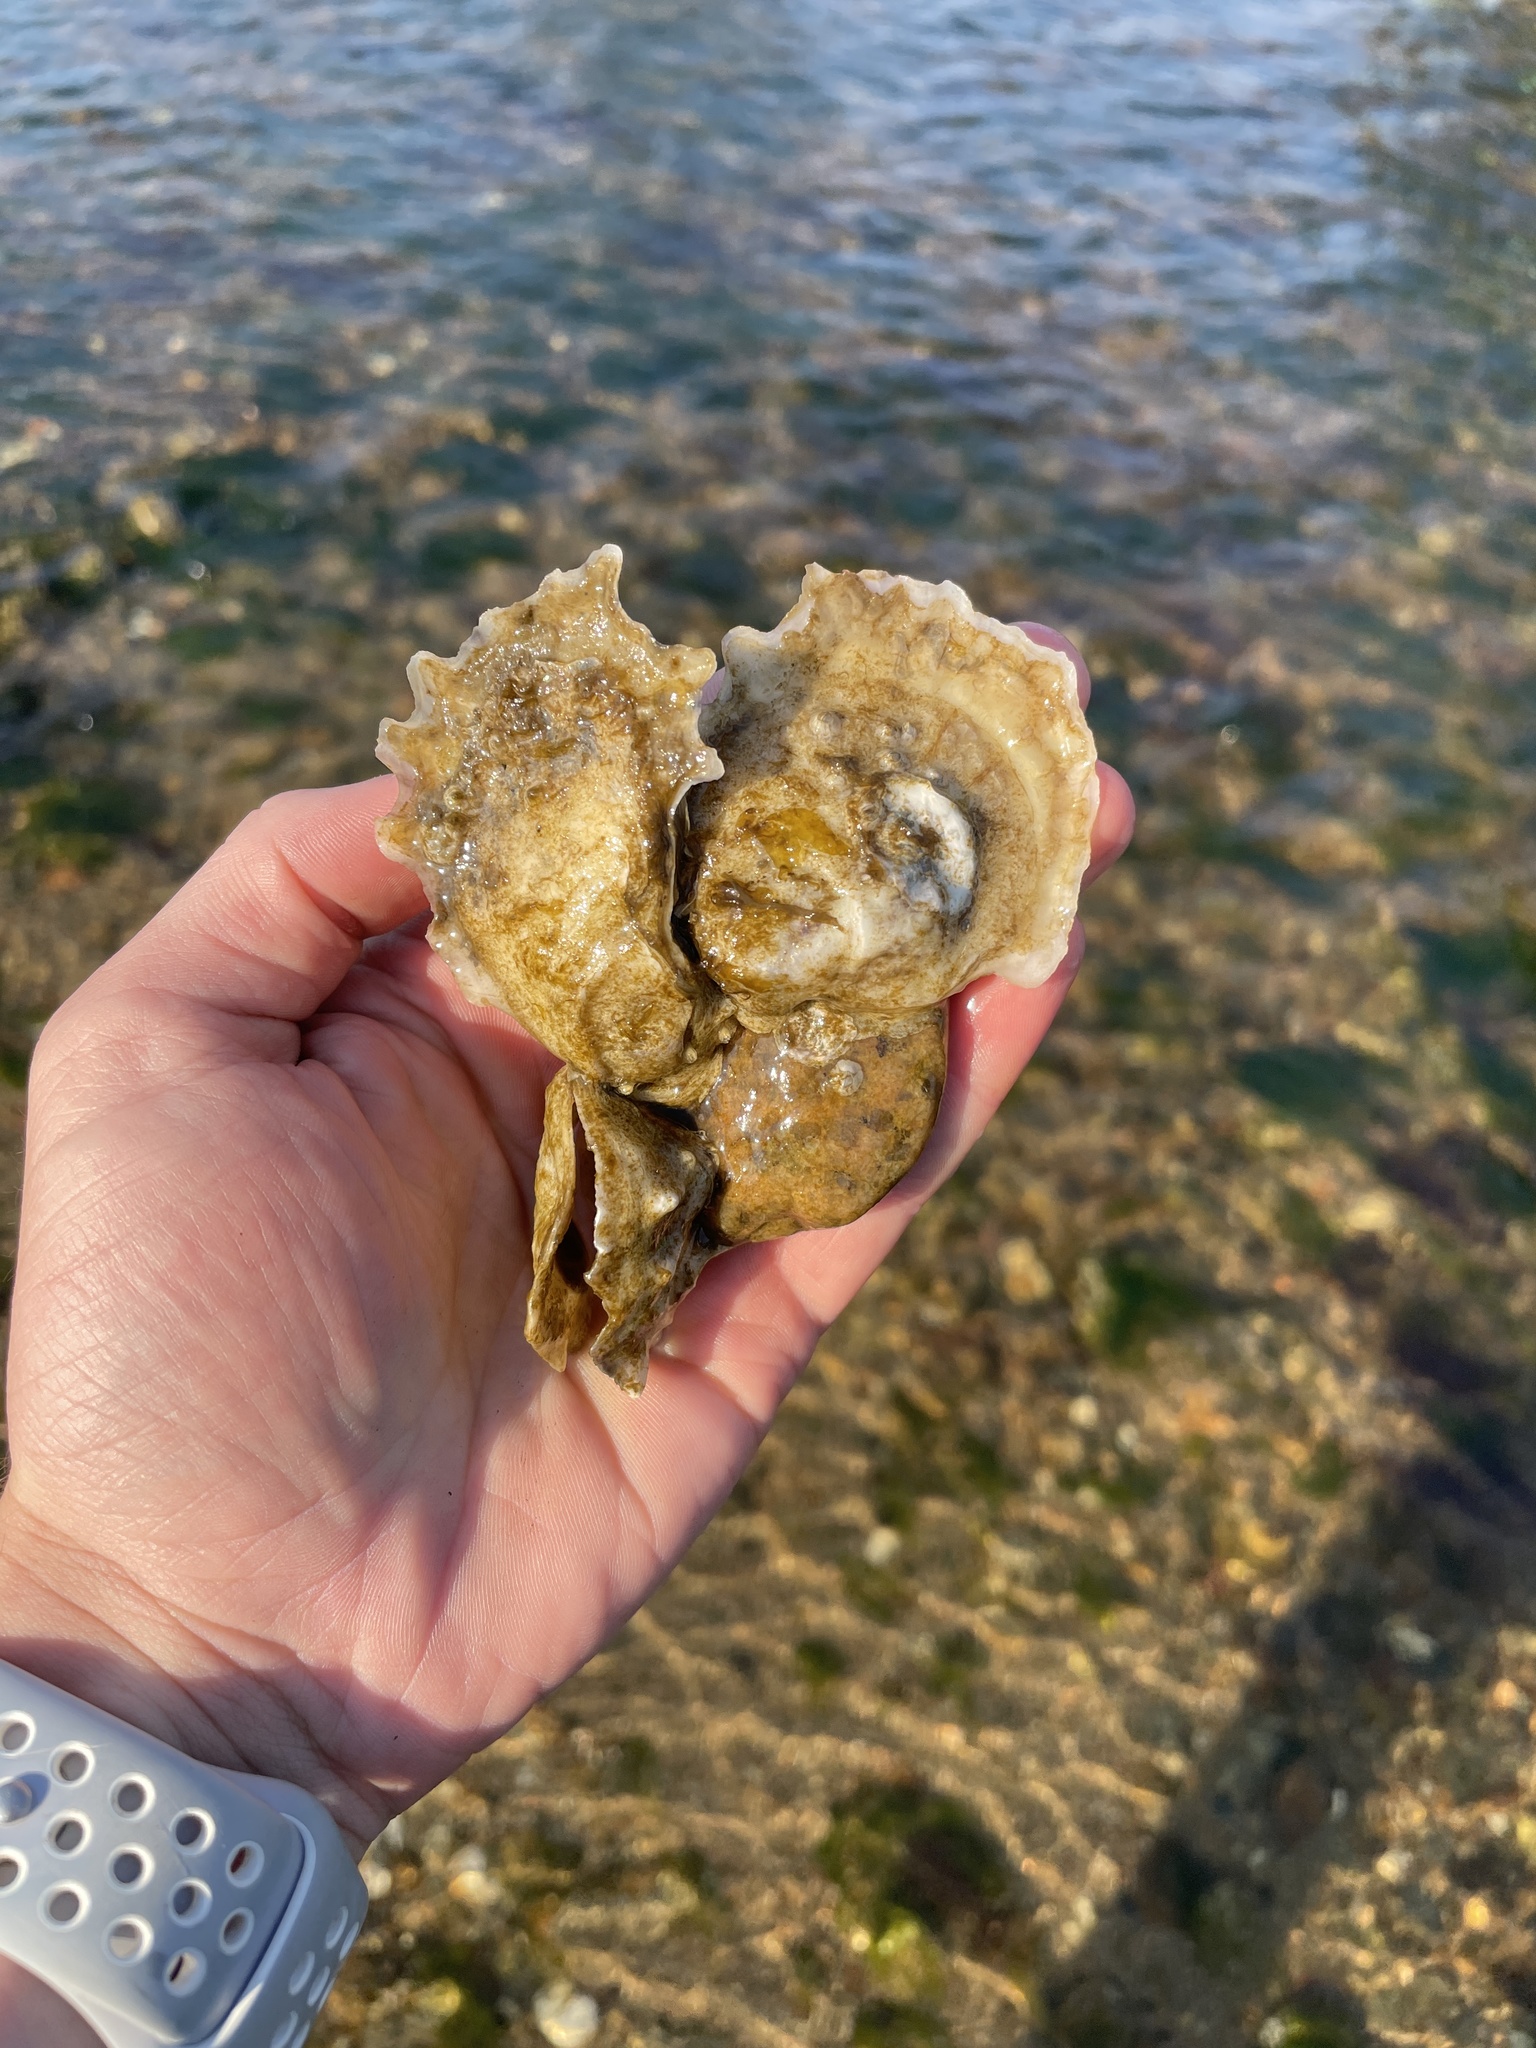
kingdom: Animalia
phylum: Mollusca
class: Bivalvia
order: Ostreida
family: Ostreidae
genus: Crassostrea
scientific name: Crassostrea virginica
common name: American oyster
